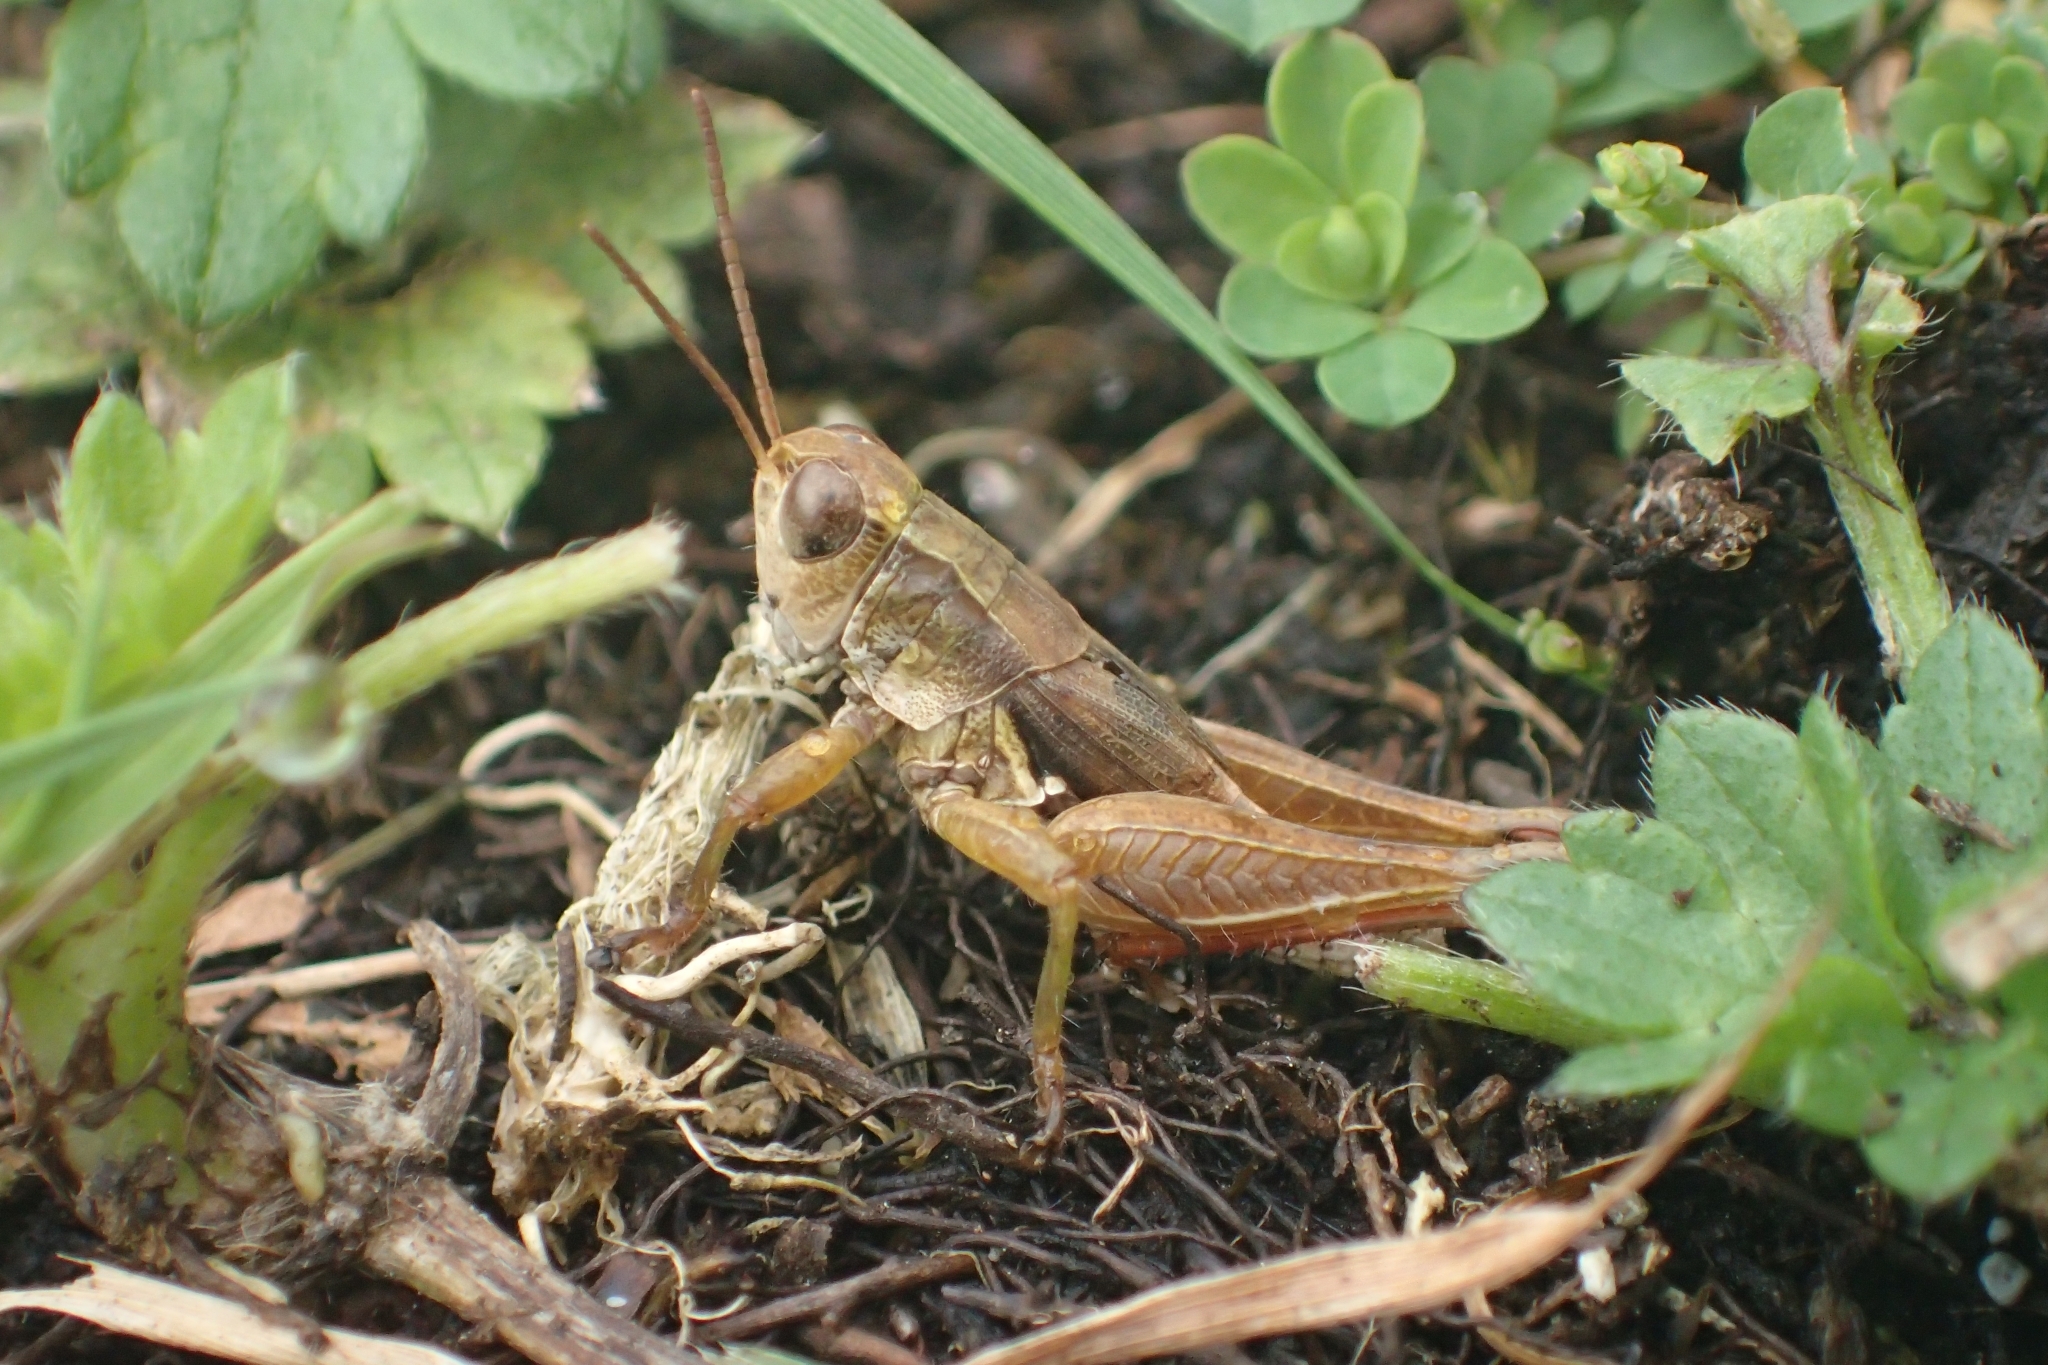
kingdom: Animalia
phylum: Arthropoda
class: Insecta
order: Orthoptera
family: Acrididae
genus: Phaulacridium
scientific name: Phaulacridium marginale
